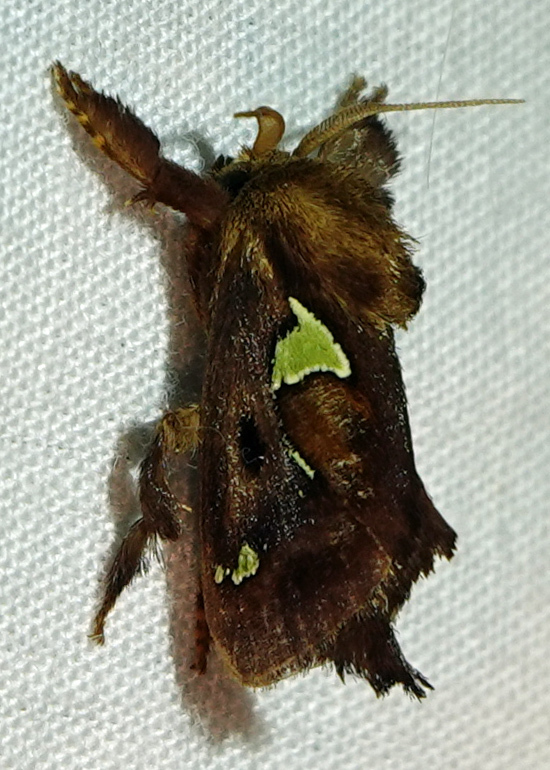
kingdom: Animalia
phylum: Arthropoda
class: Insecta
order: Lepidoptera
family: Limacodidae
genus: Euclea
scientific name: Euclea delphinii
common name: Spiny oak-slug moth
